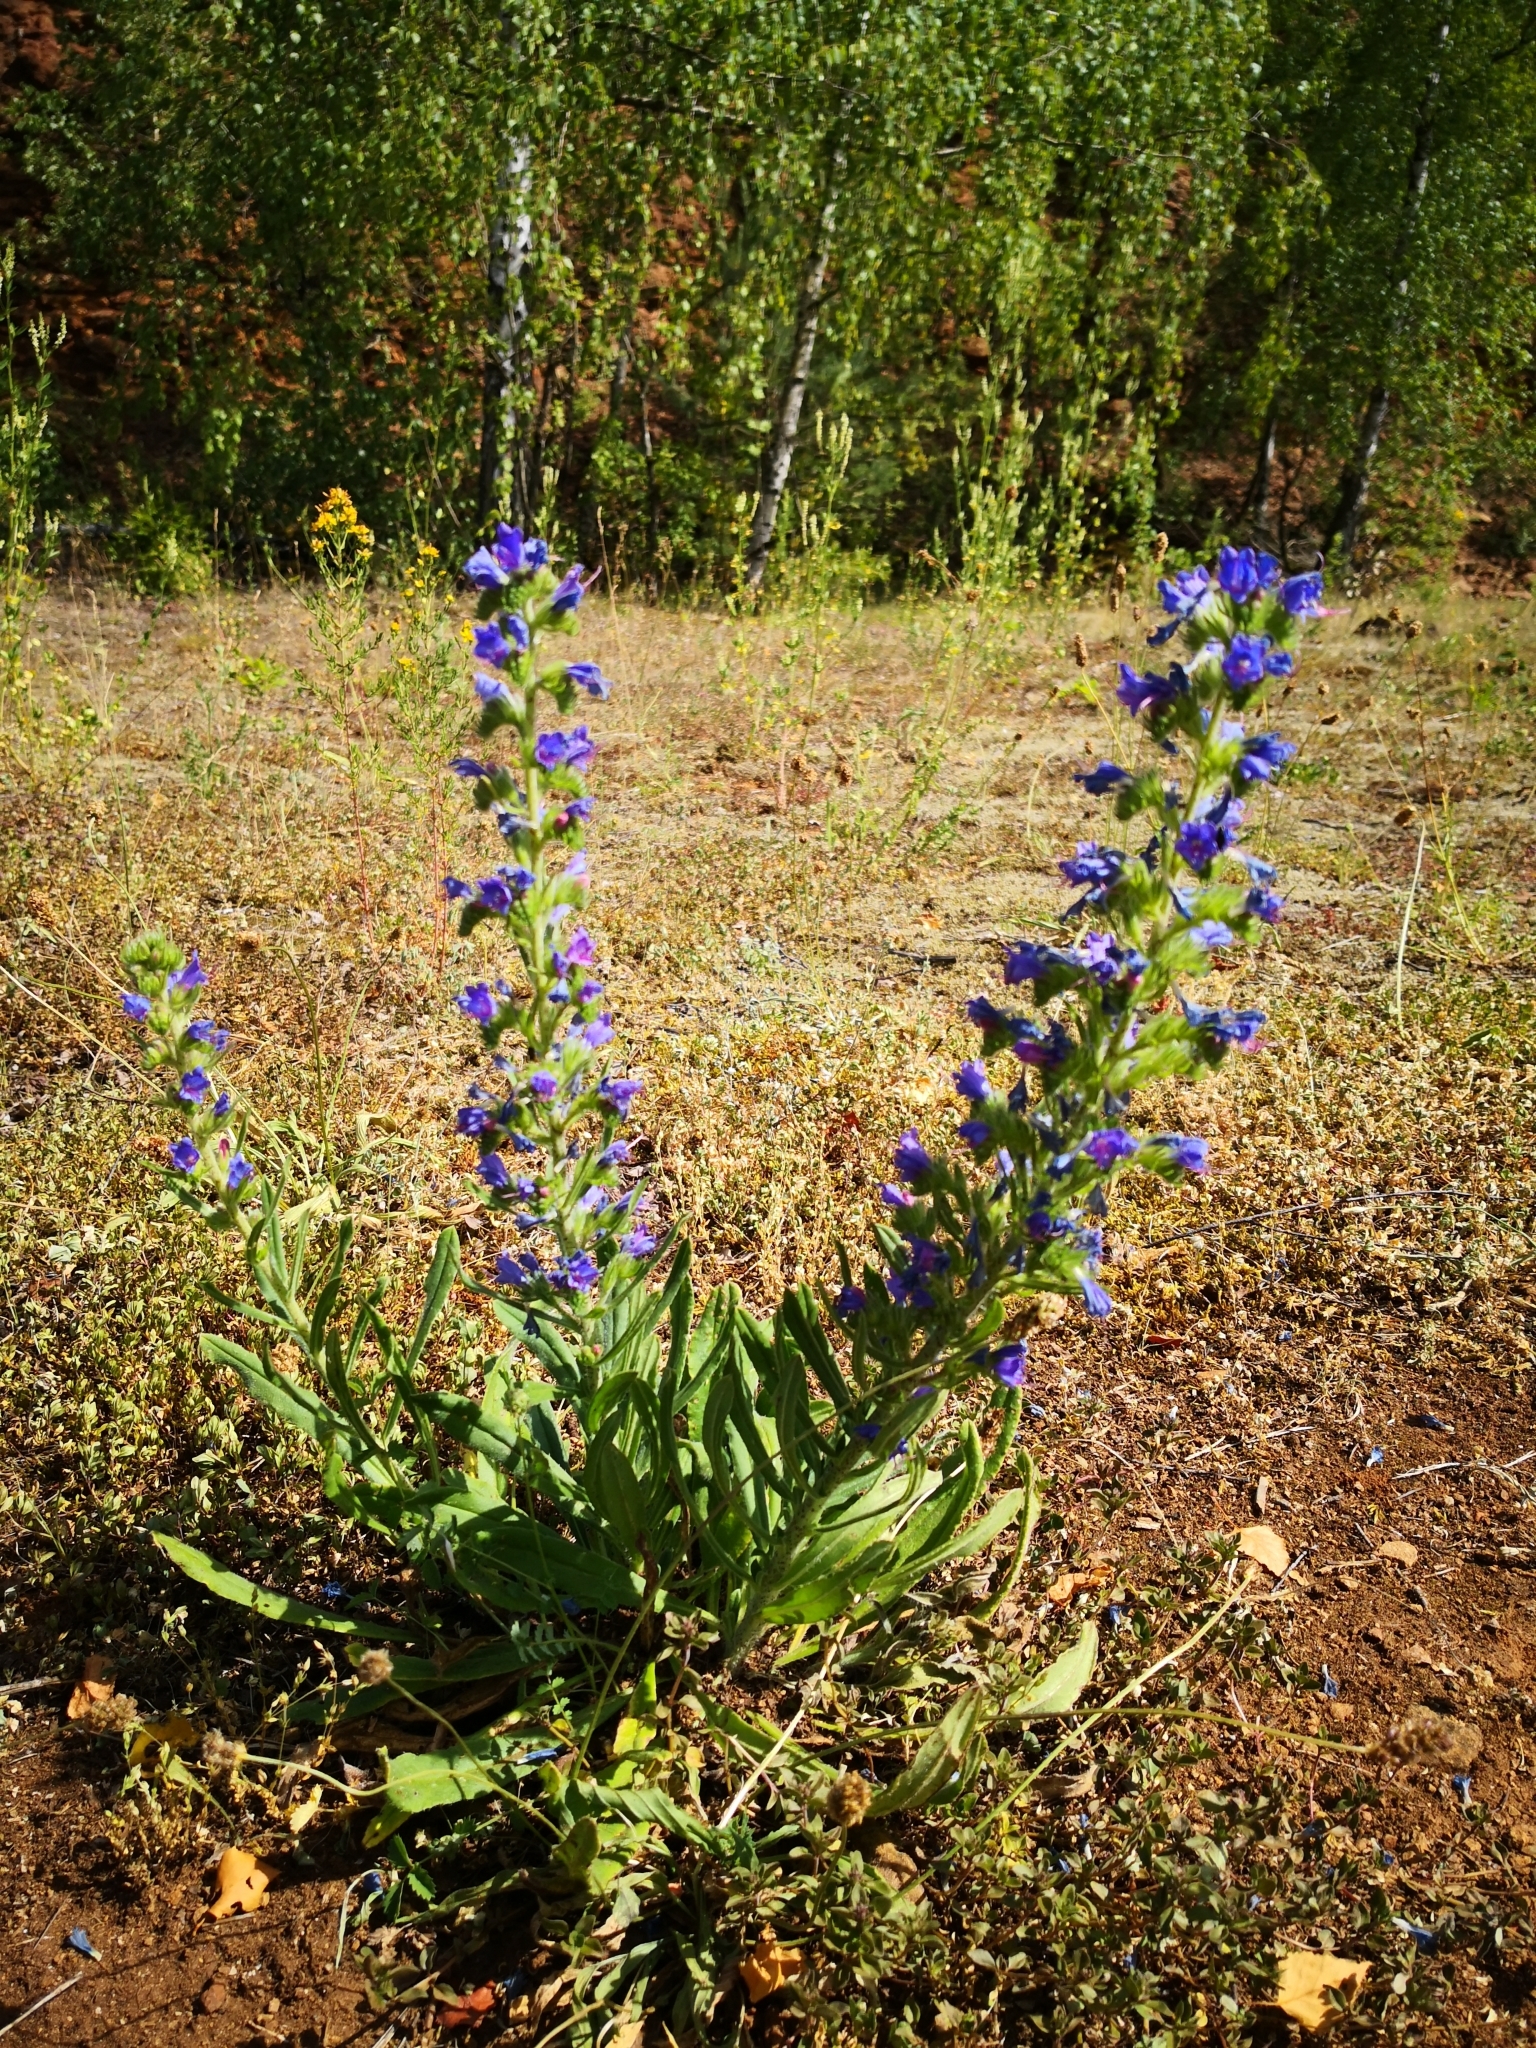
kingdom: Plantae
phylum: Tracheophyta
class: Magnoliopsida
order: Boraginales
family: Boraginaceae
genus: Echium
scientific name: Echium vulgare
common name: Common viper's bugloss
